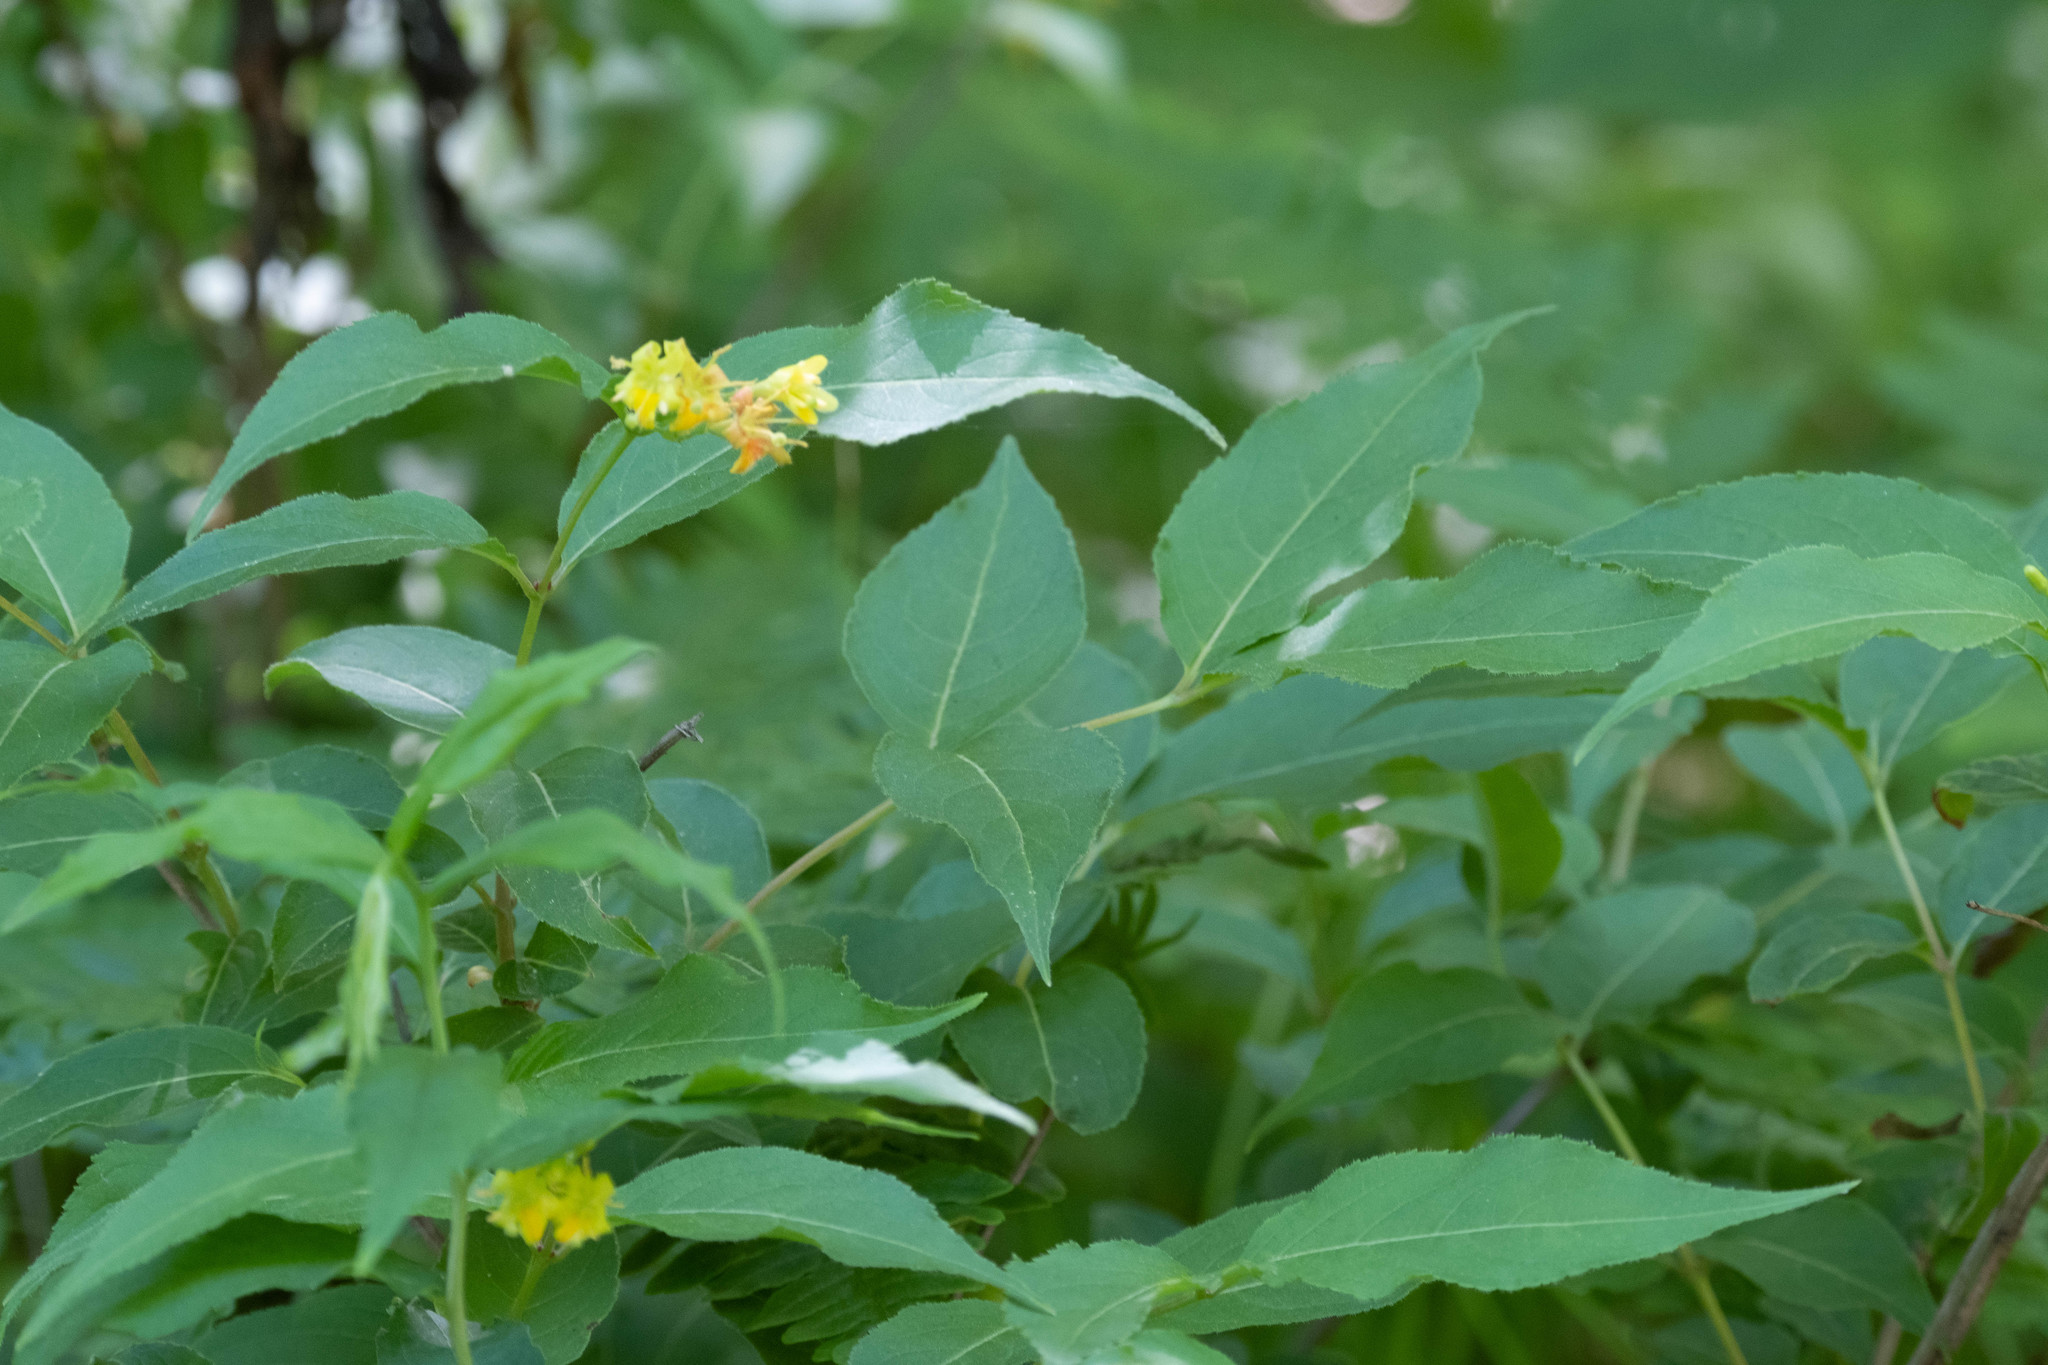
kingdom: Plantae
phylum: Tracheophyta
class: Magnoliopsida
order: Dipsacales
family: Caprifoliaceae
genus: Diervilla
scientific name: Diervilla lonicera
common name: Bush-honeysuckle
